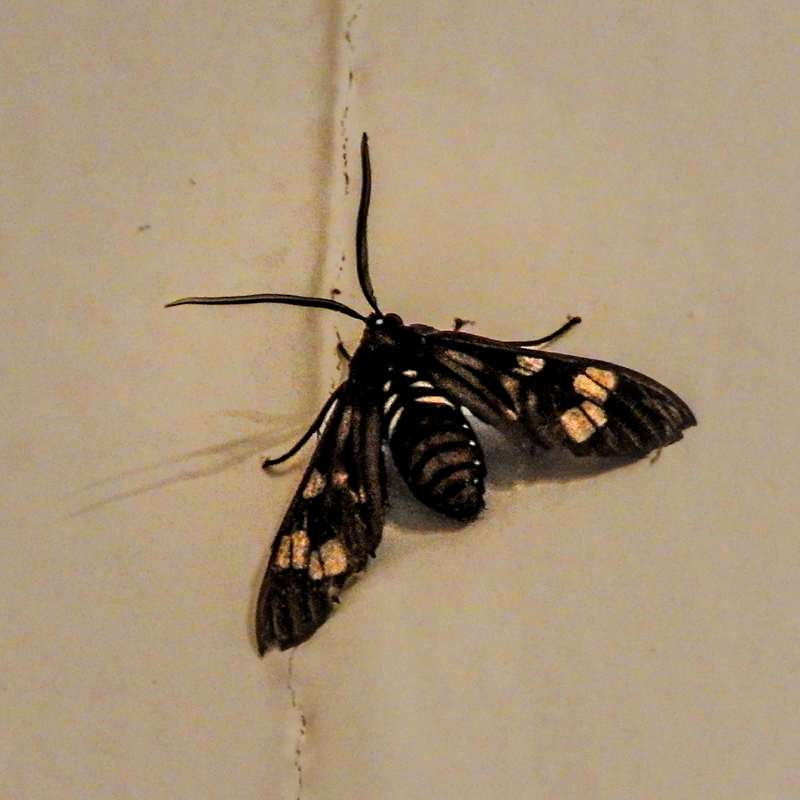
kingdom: Animalia
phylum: Arthropoda
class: Insecta
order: Lepidoptera
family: Erebidae
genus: Histioea
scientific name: Histioea cepheus
